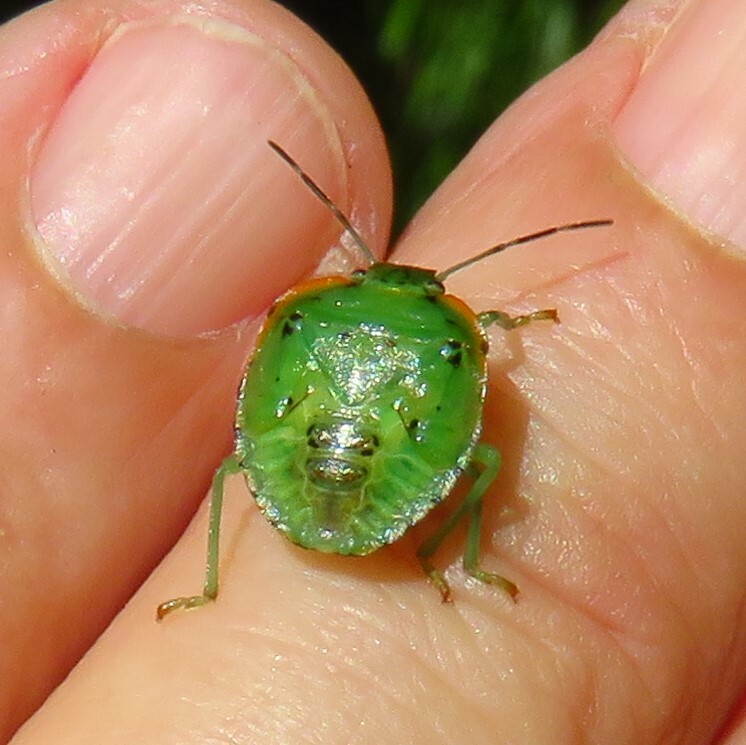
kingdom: Animalia
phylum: Arthropoda
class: Insecta
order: Hemiptera
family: Pentatomidae
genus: Chinavia
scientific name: Chinavia hilaris
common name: Green stink bug
